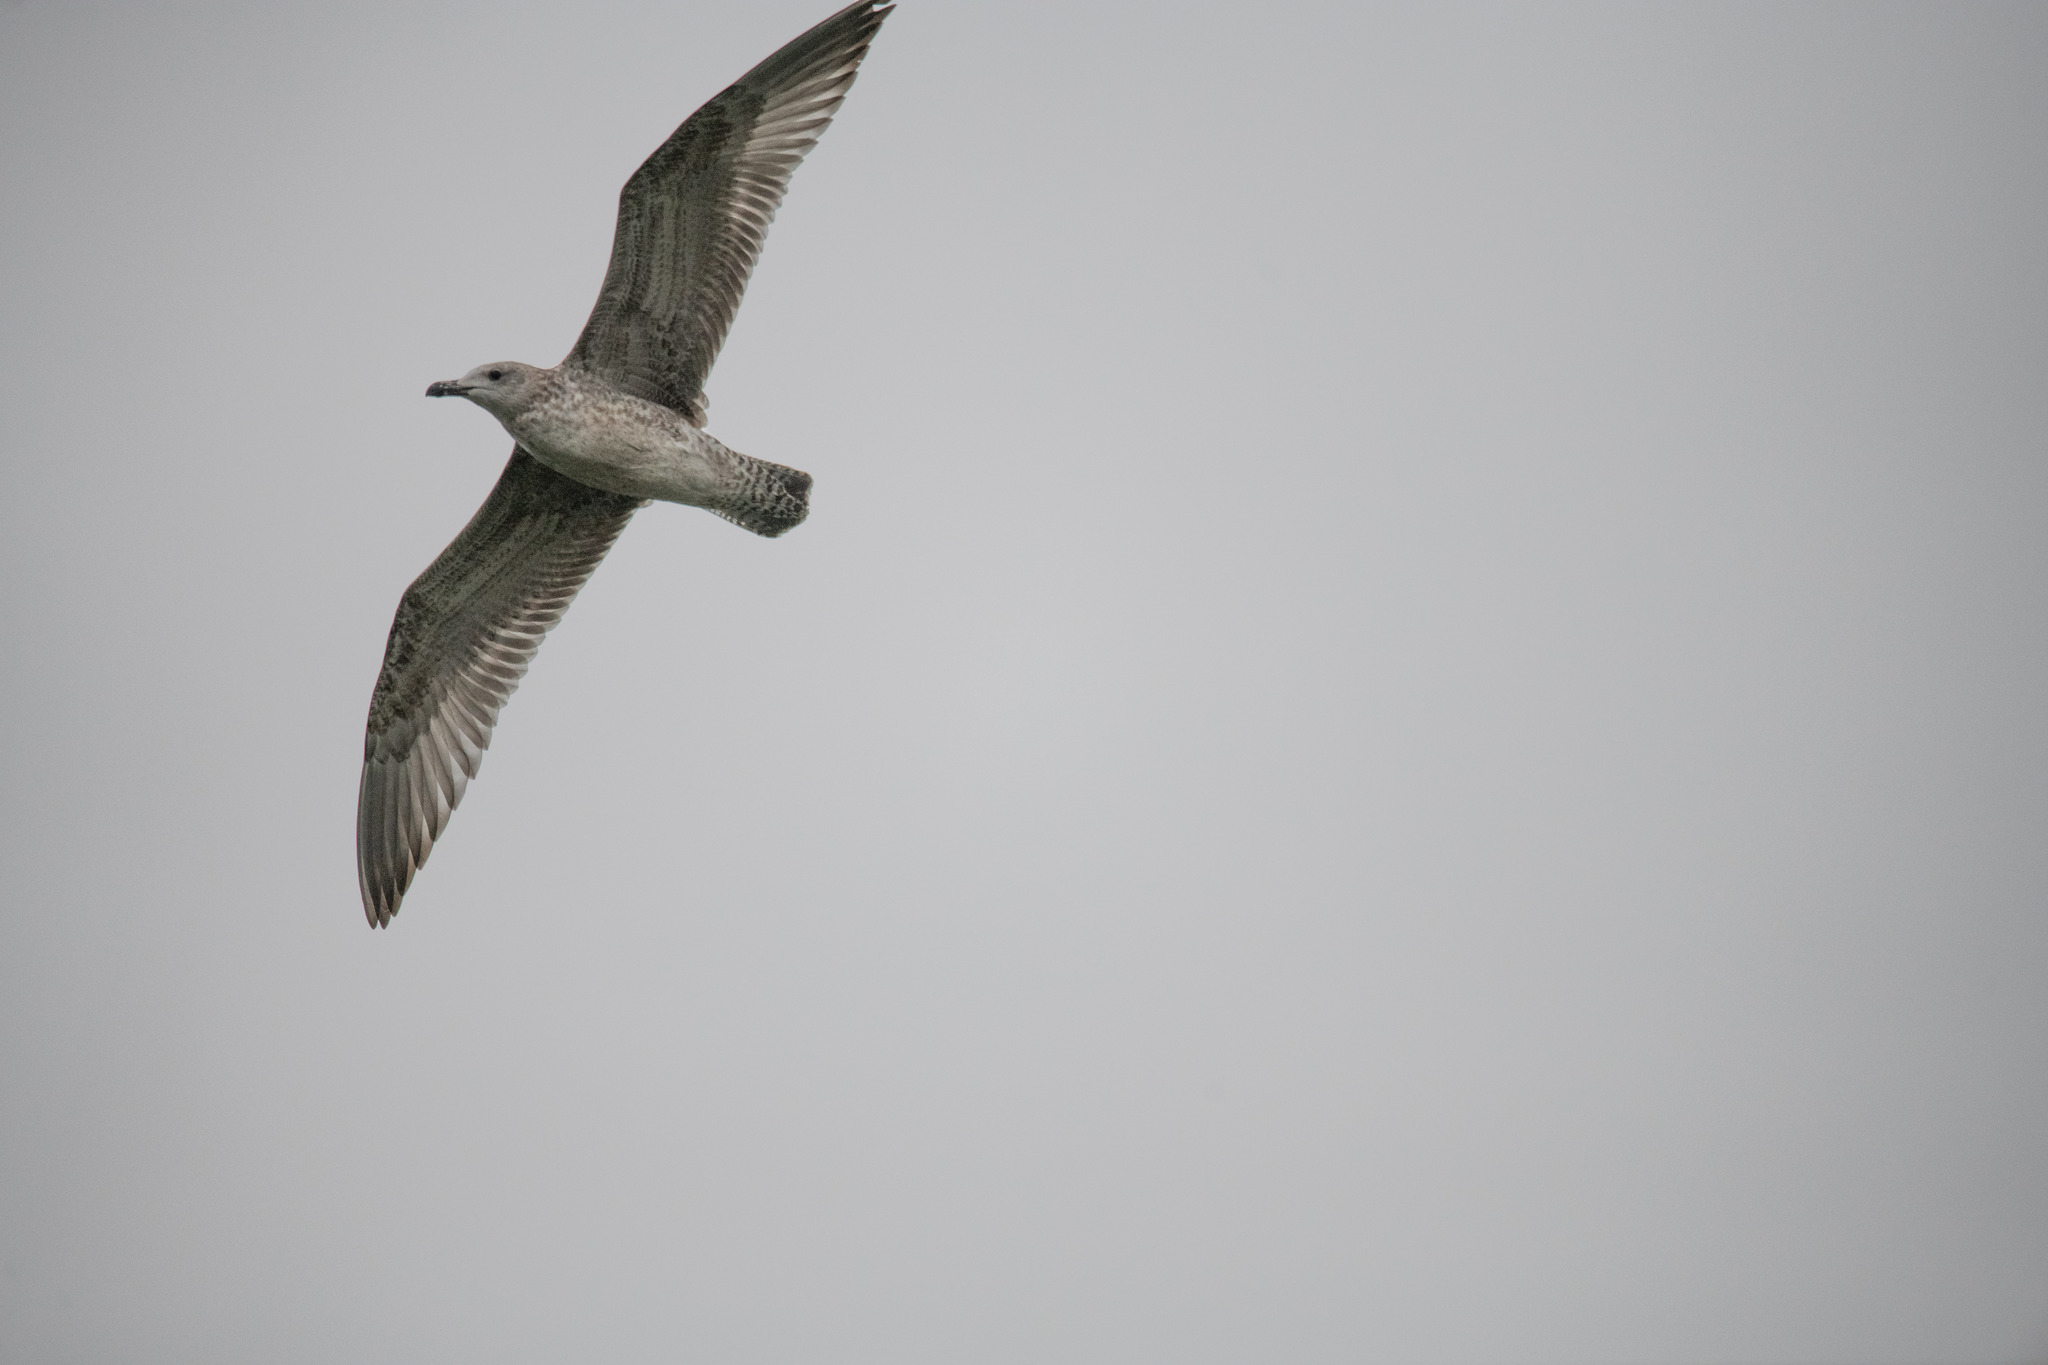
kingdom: Animalia
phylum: Chordata
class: Aves
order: Charadriiformes
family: Laridae
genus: Larus
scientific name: Larus argentatus
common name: Herring gull
